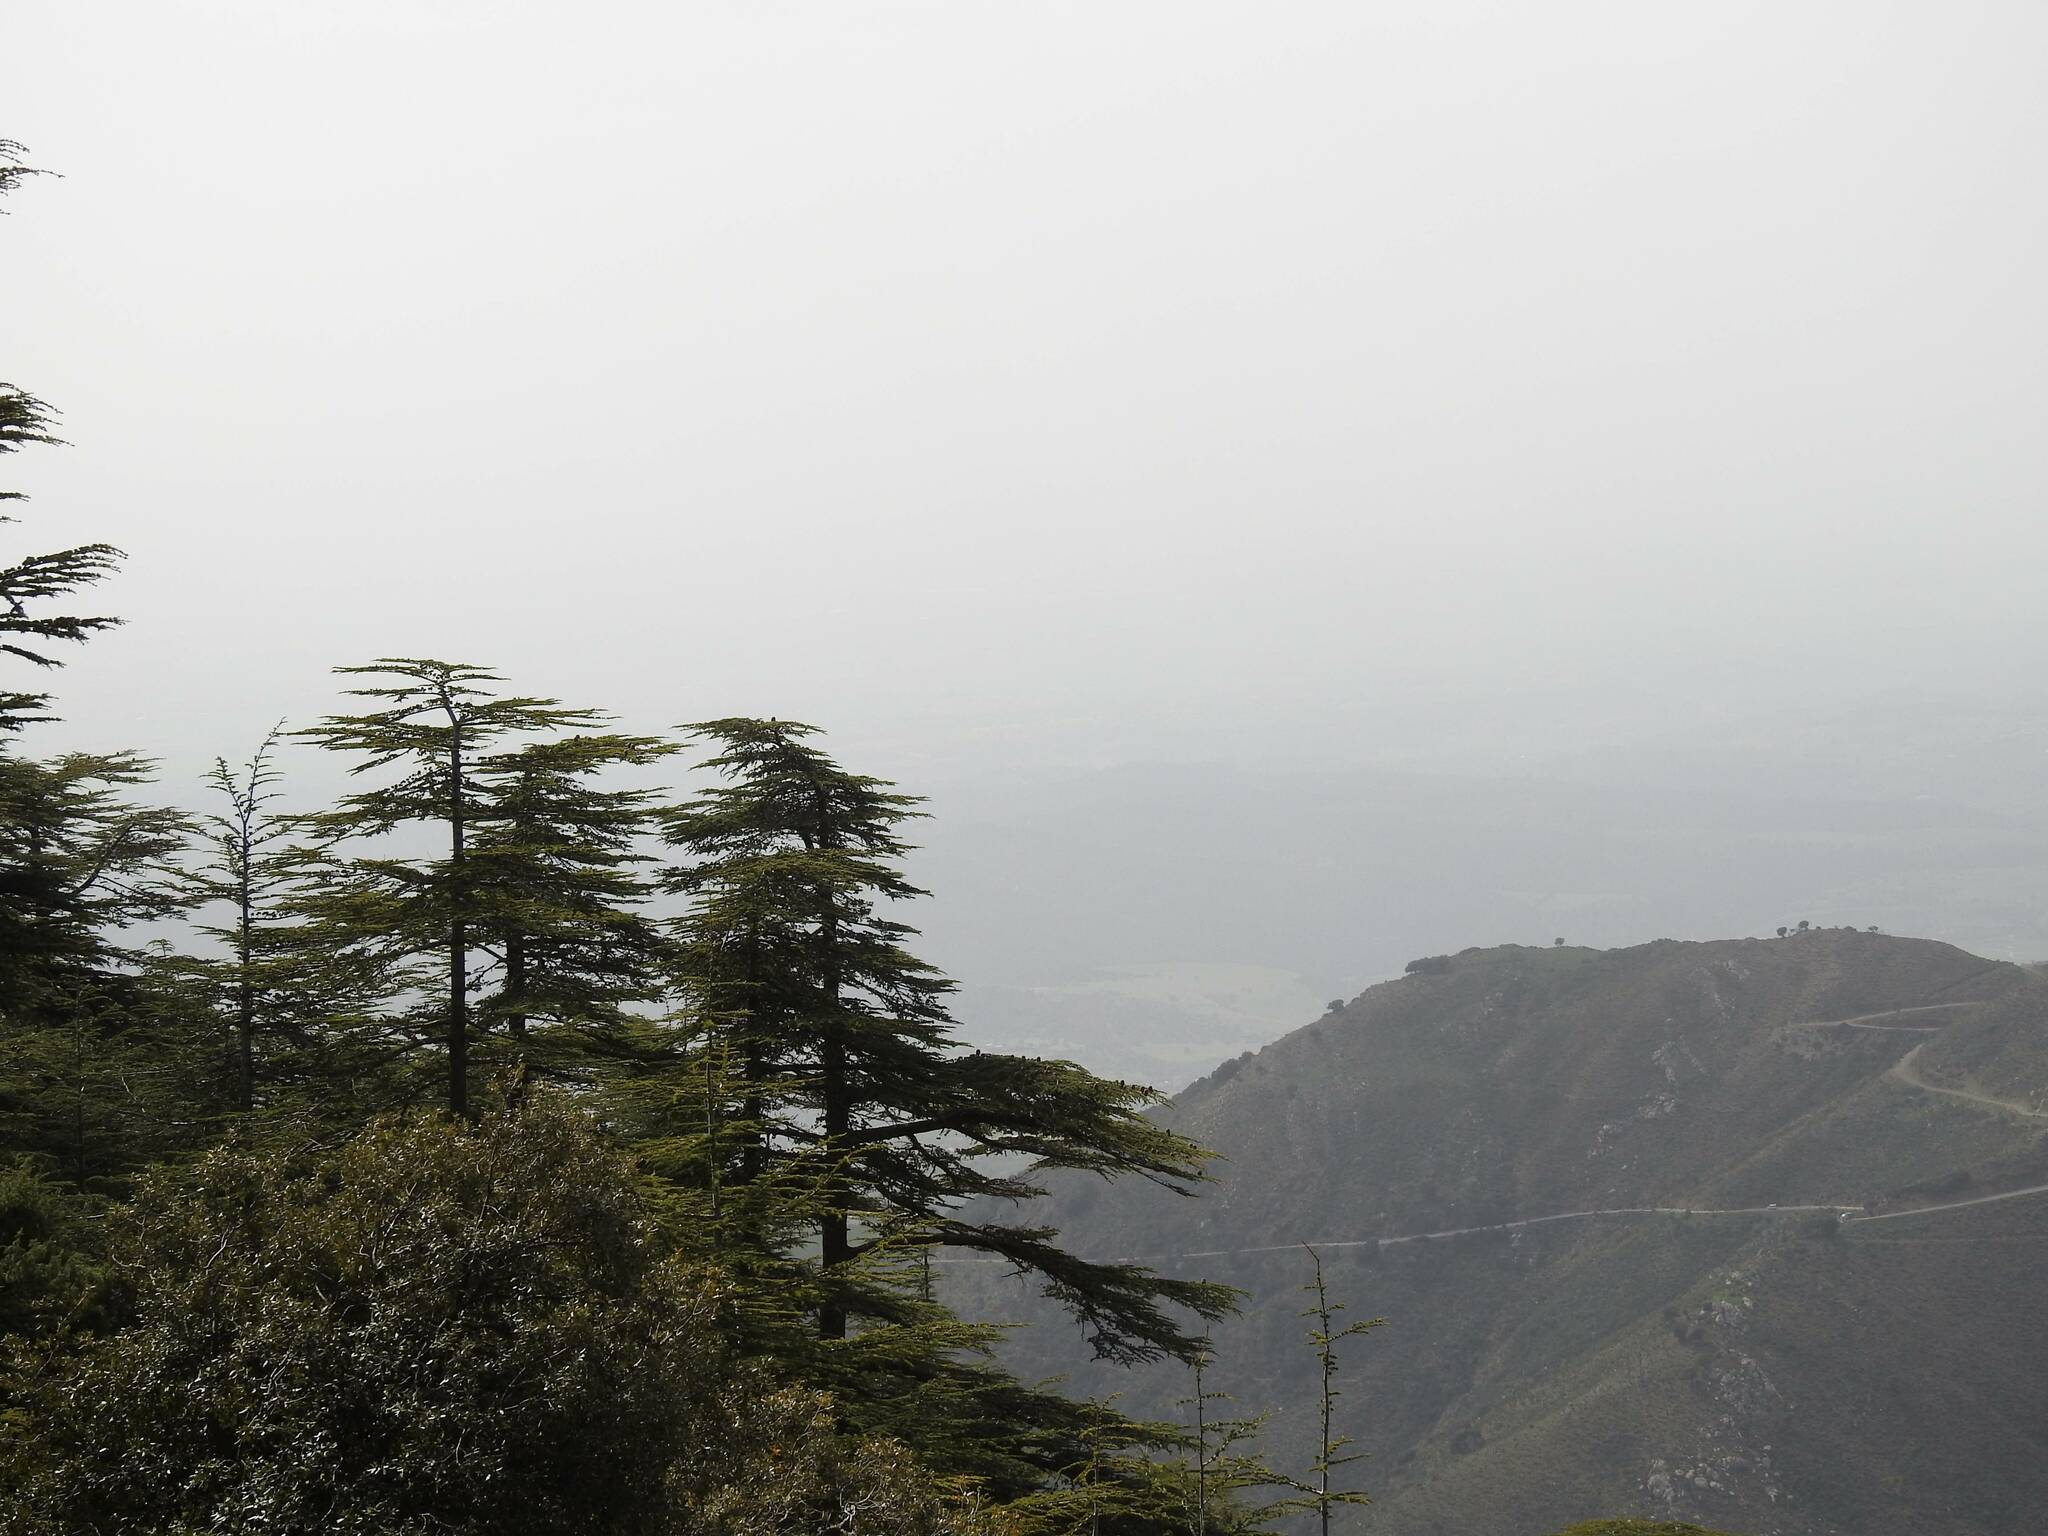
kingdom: Plantae
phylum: Tracheophyta
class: Pinopsida
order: Pinales
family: Pinaceae
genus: Cedrus
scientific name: Cedrus atlantica
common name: Atlas cedar
